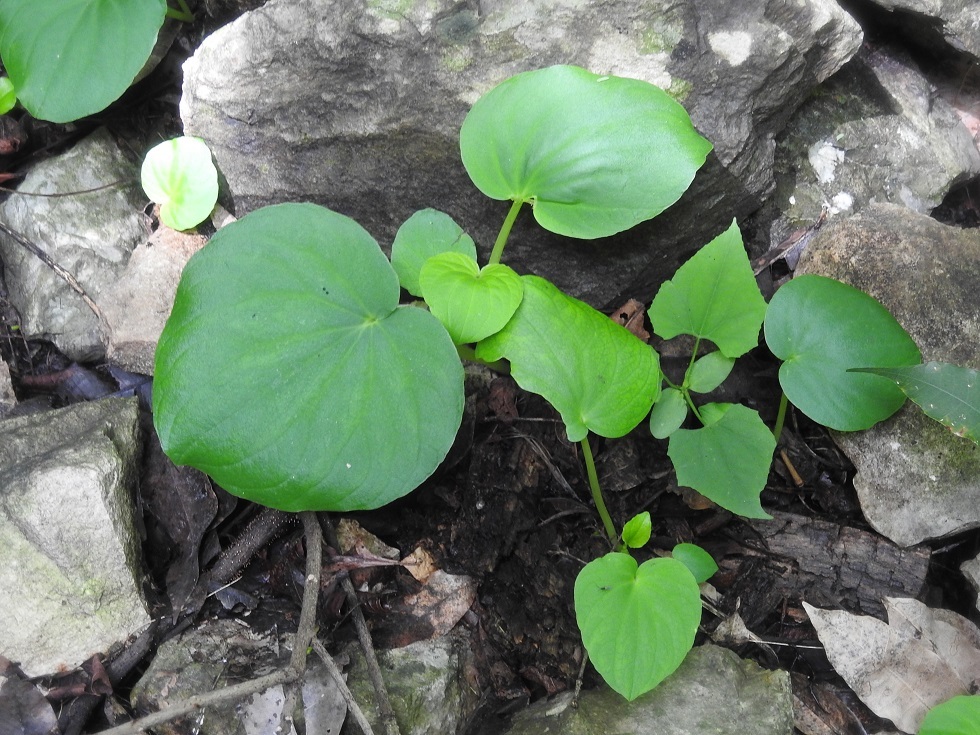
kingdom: Plantae
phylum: Tracheophyta
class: Magnoliopsida
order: Piperales
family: Piperaceae
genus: Peperomia
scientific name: Peperomia lanceolatopeltata
